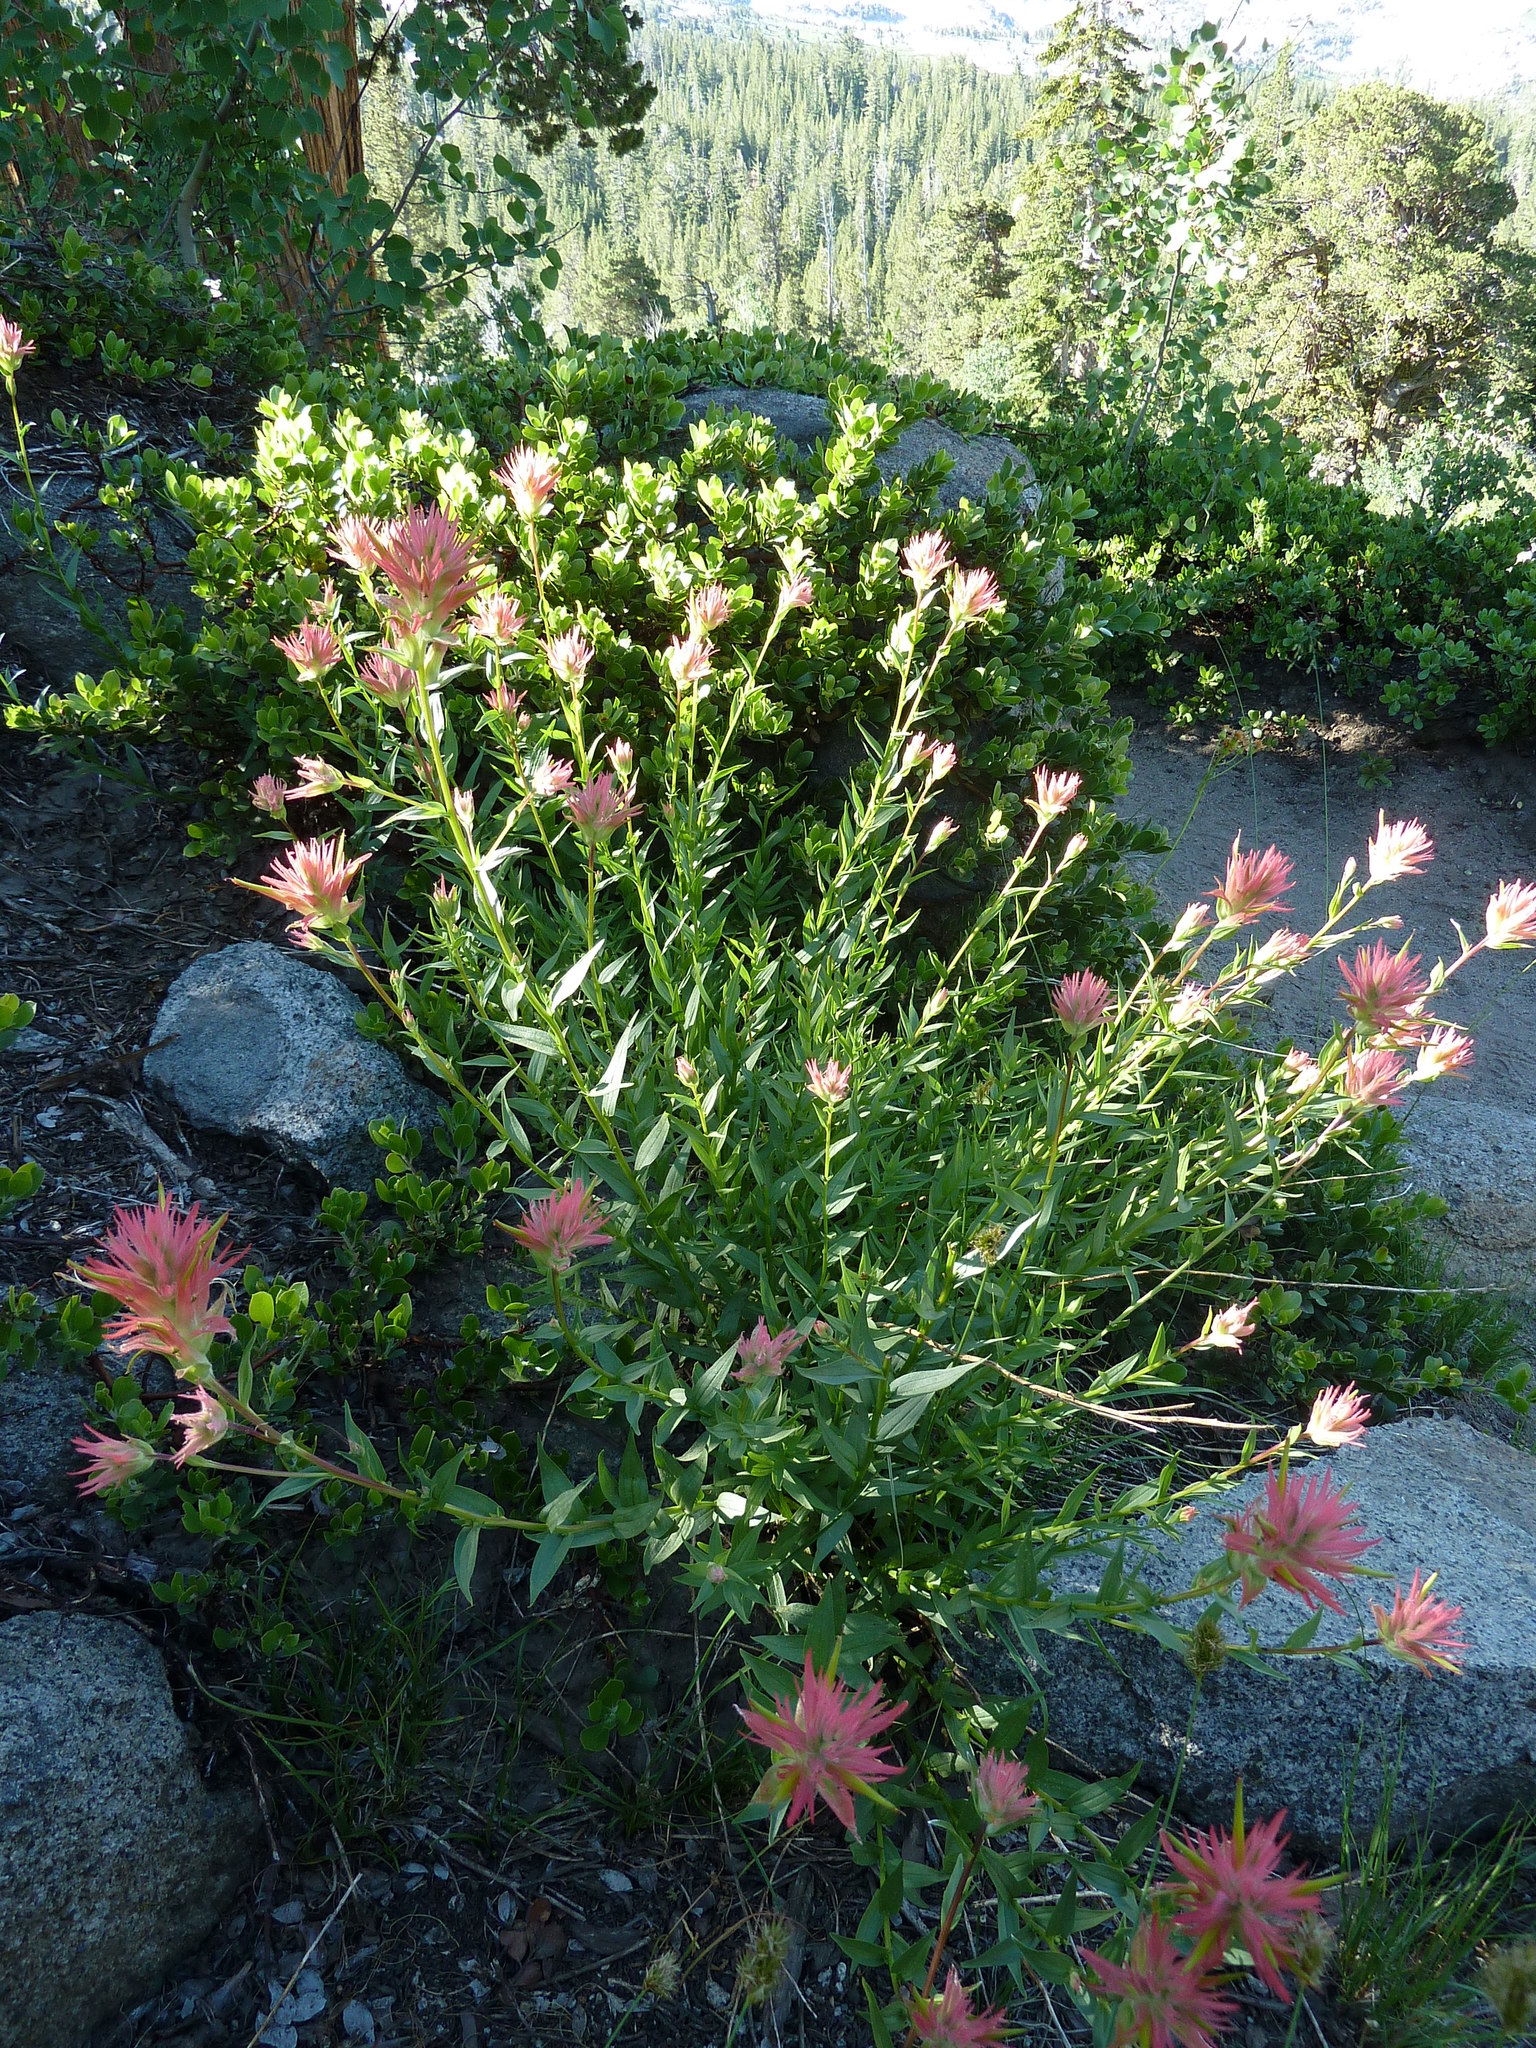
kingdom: Plantae
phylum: Tracheophyta
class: Magnoliopsida
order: Lamiales
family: Orobanchaceae
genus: Castilleja
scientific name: Castilleja miniata
